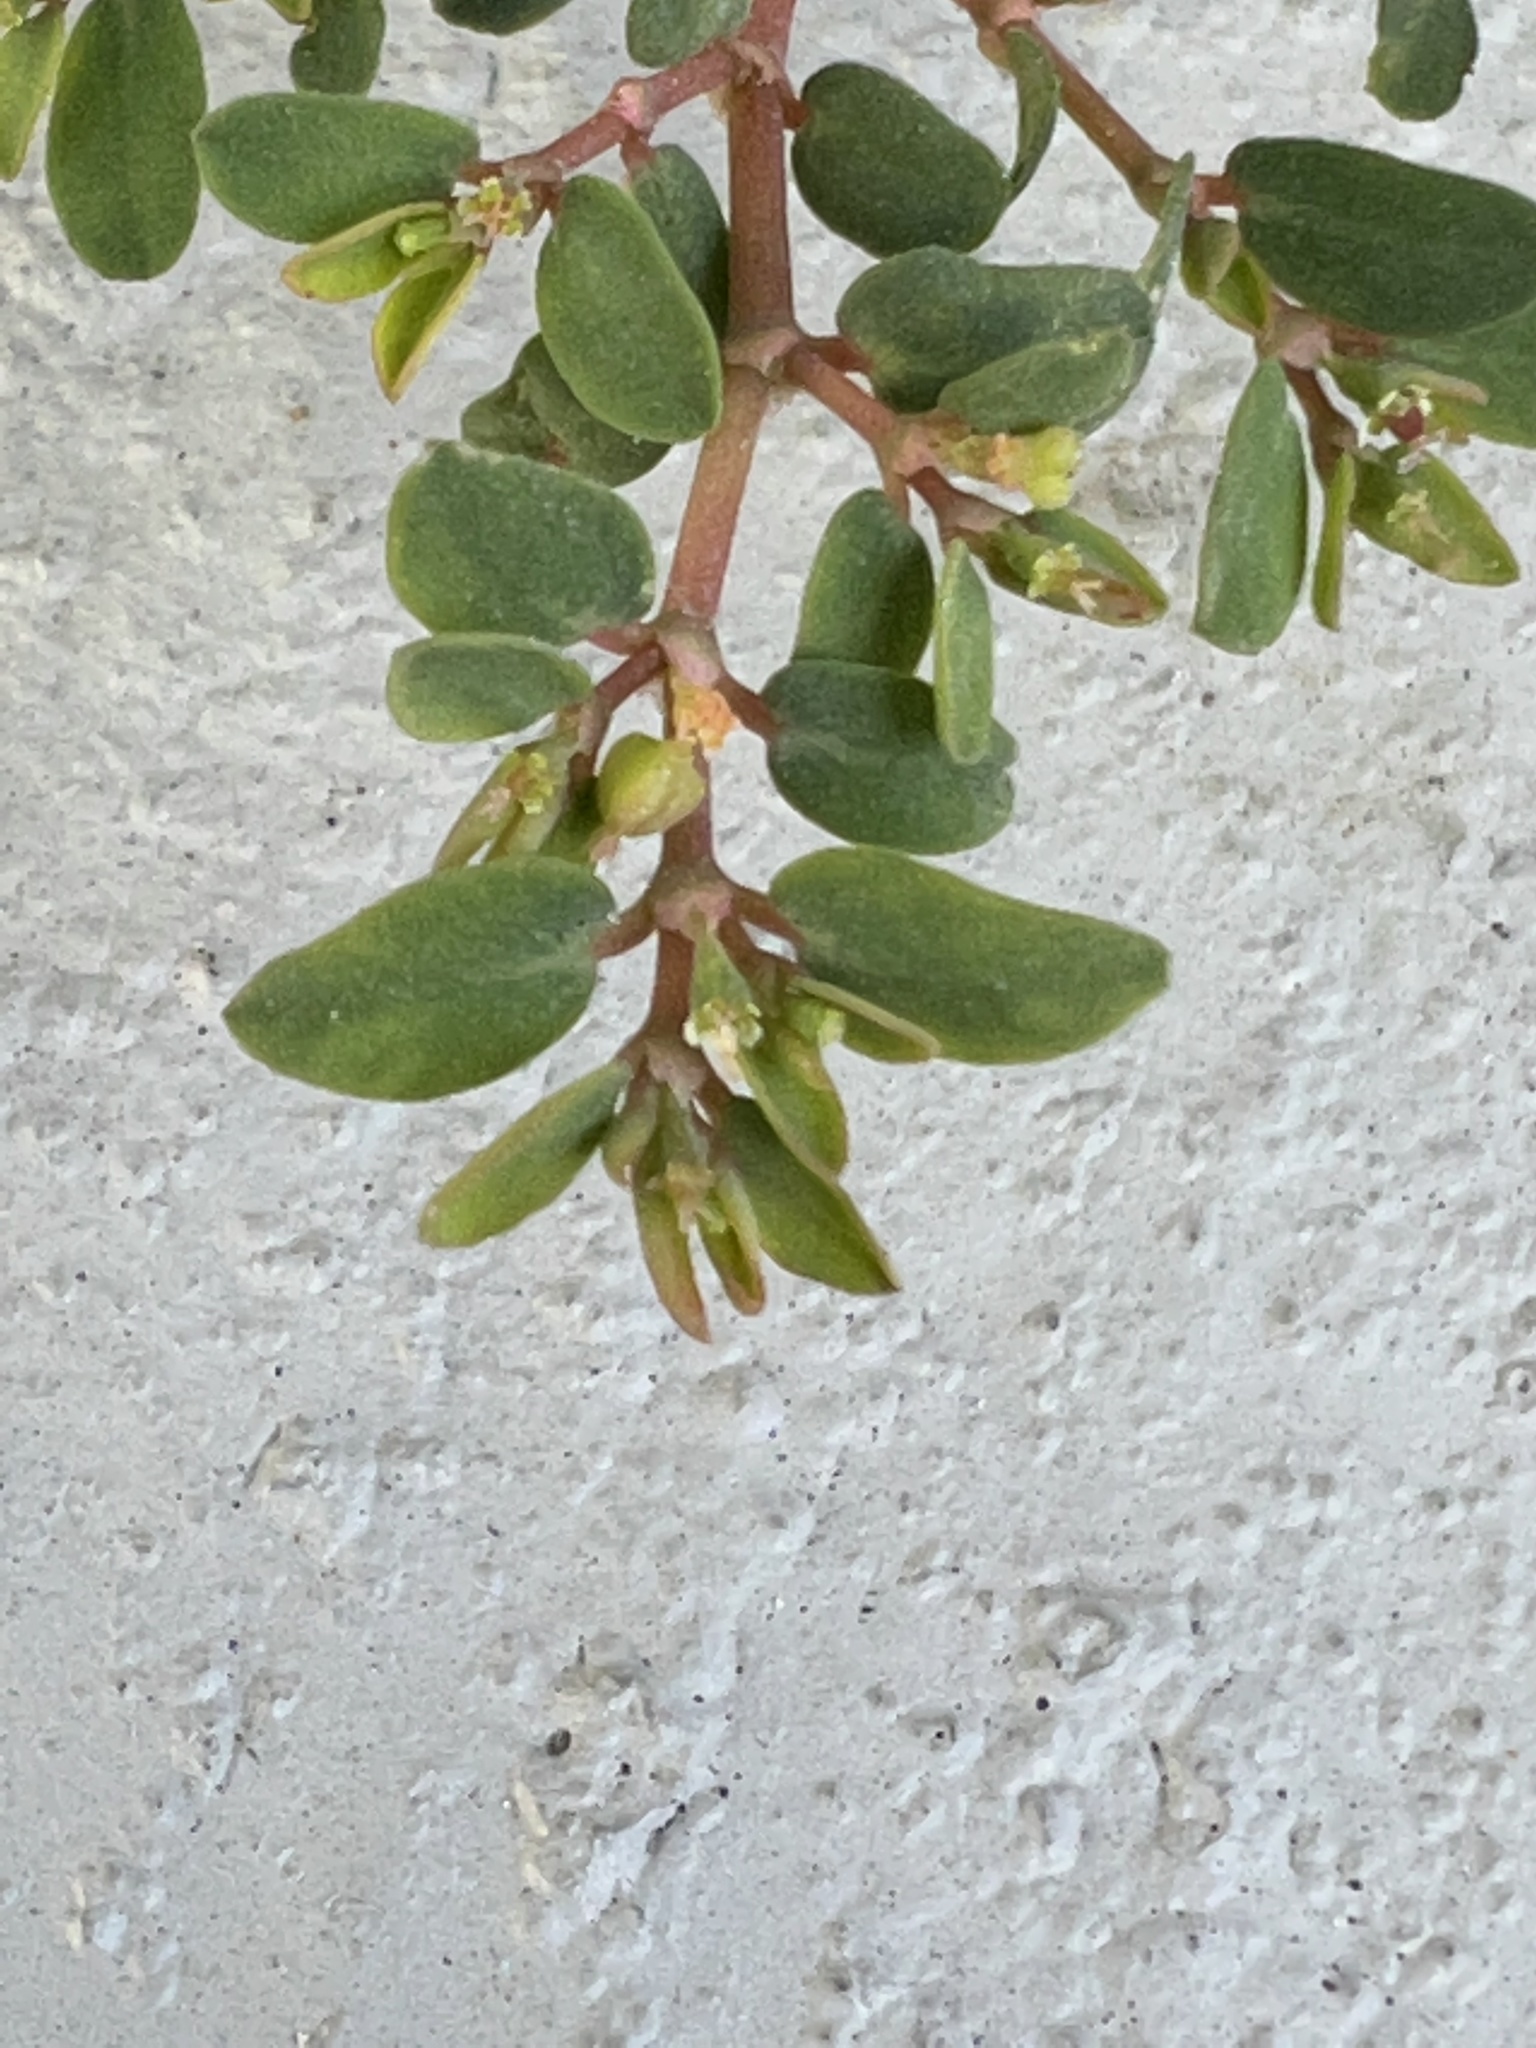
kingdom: Plantae
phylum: Tracheophyta
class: Magnoliopsida
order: Malpighiales
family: Euphorbiaceae
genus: Euphorbia
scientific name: Euphorbia blodgettii
